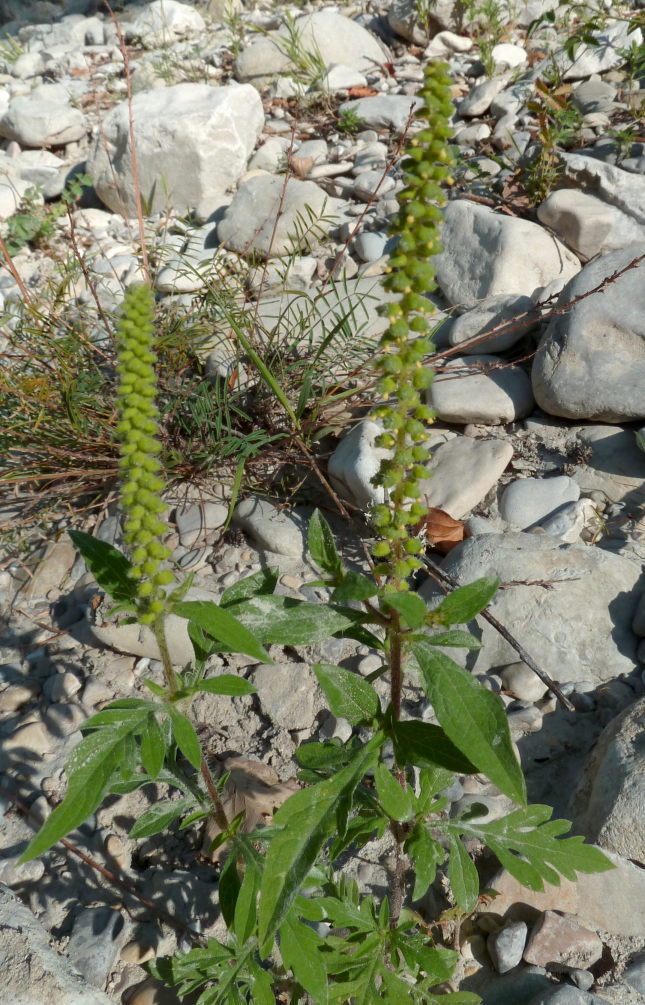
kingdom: Plantae
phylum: Tracheophyta
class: Magnoliopsida
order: Asterales
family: Asteraceae
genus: Ambrosia
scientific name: Ambrosia artemisiifolia
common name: Annual ragweed
